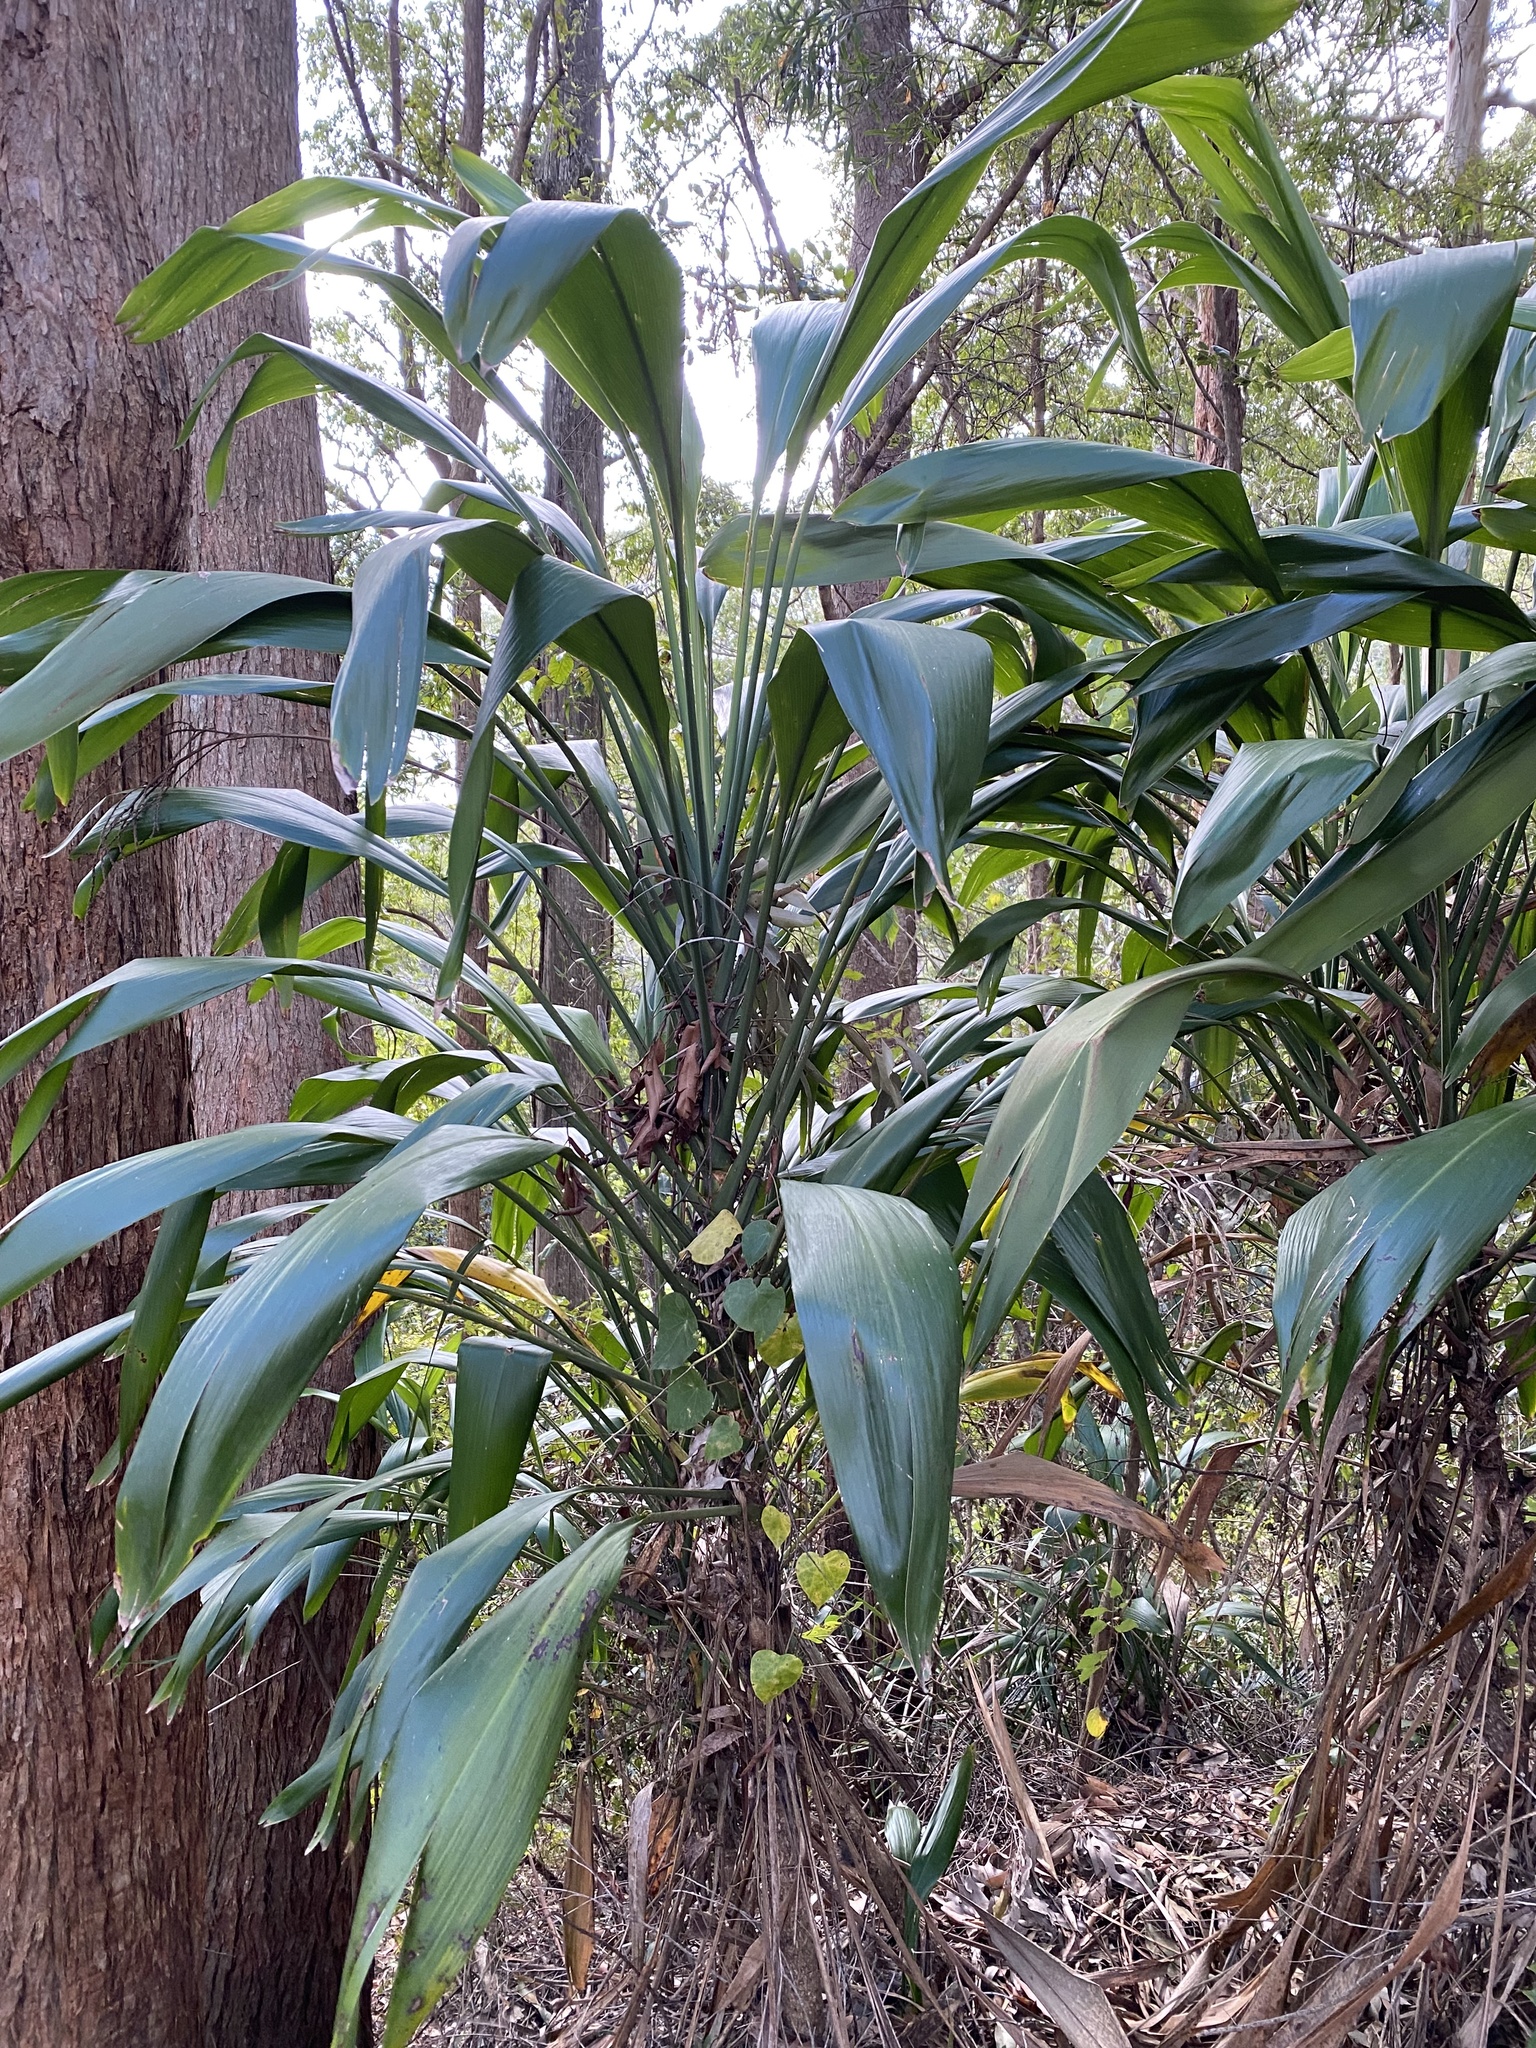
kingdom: Plantae
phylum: Tracheophyta
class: Liliopsida
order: Asparagales
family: Asparagaceae
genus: Cordyline
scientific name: Cordyline petiolaris
